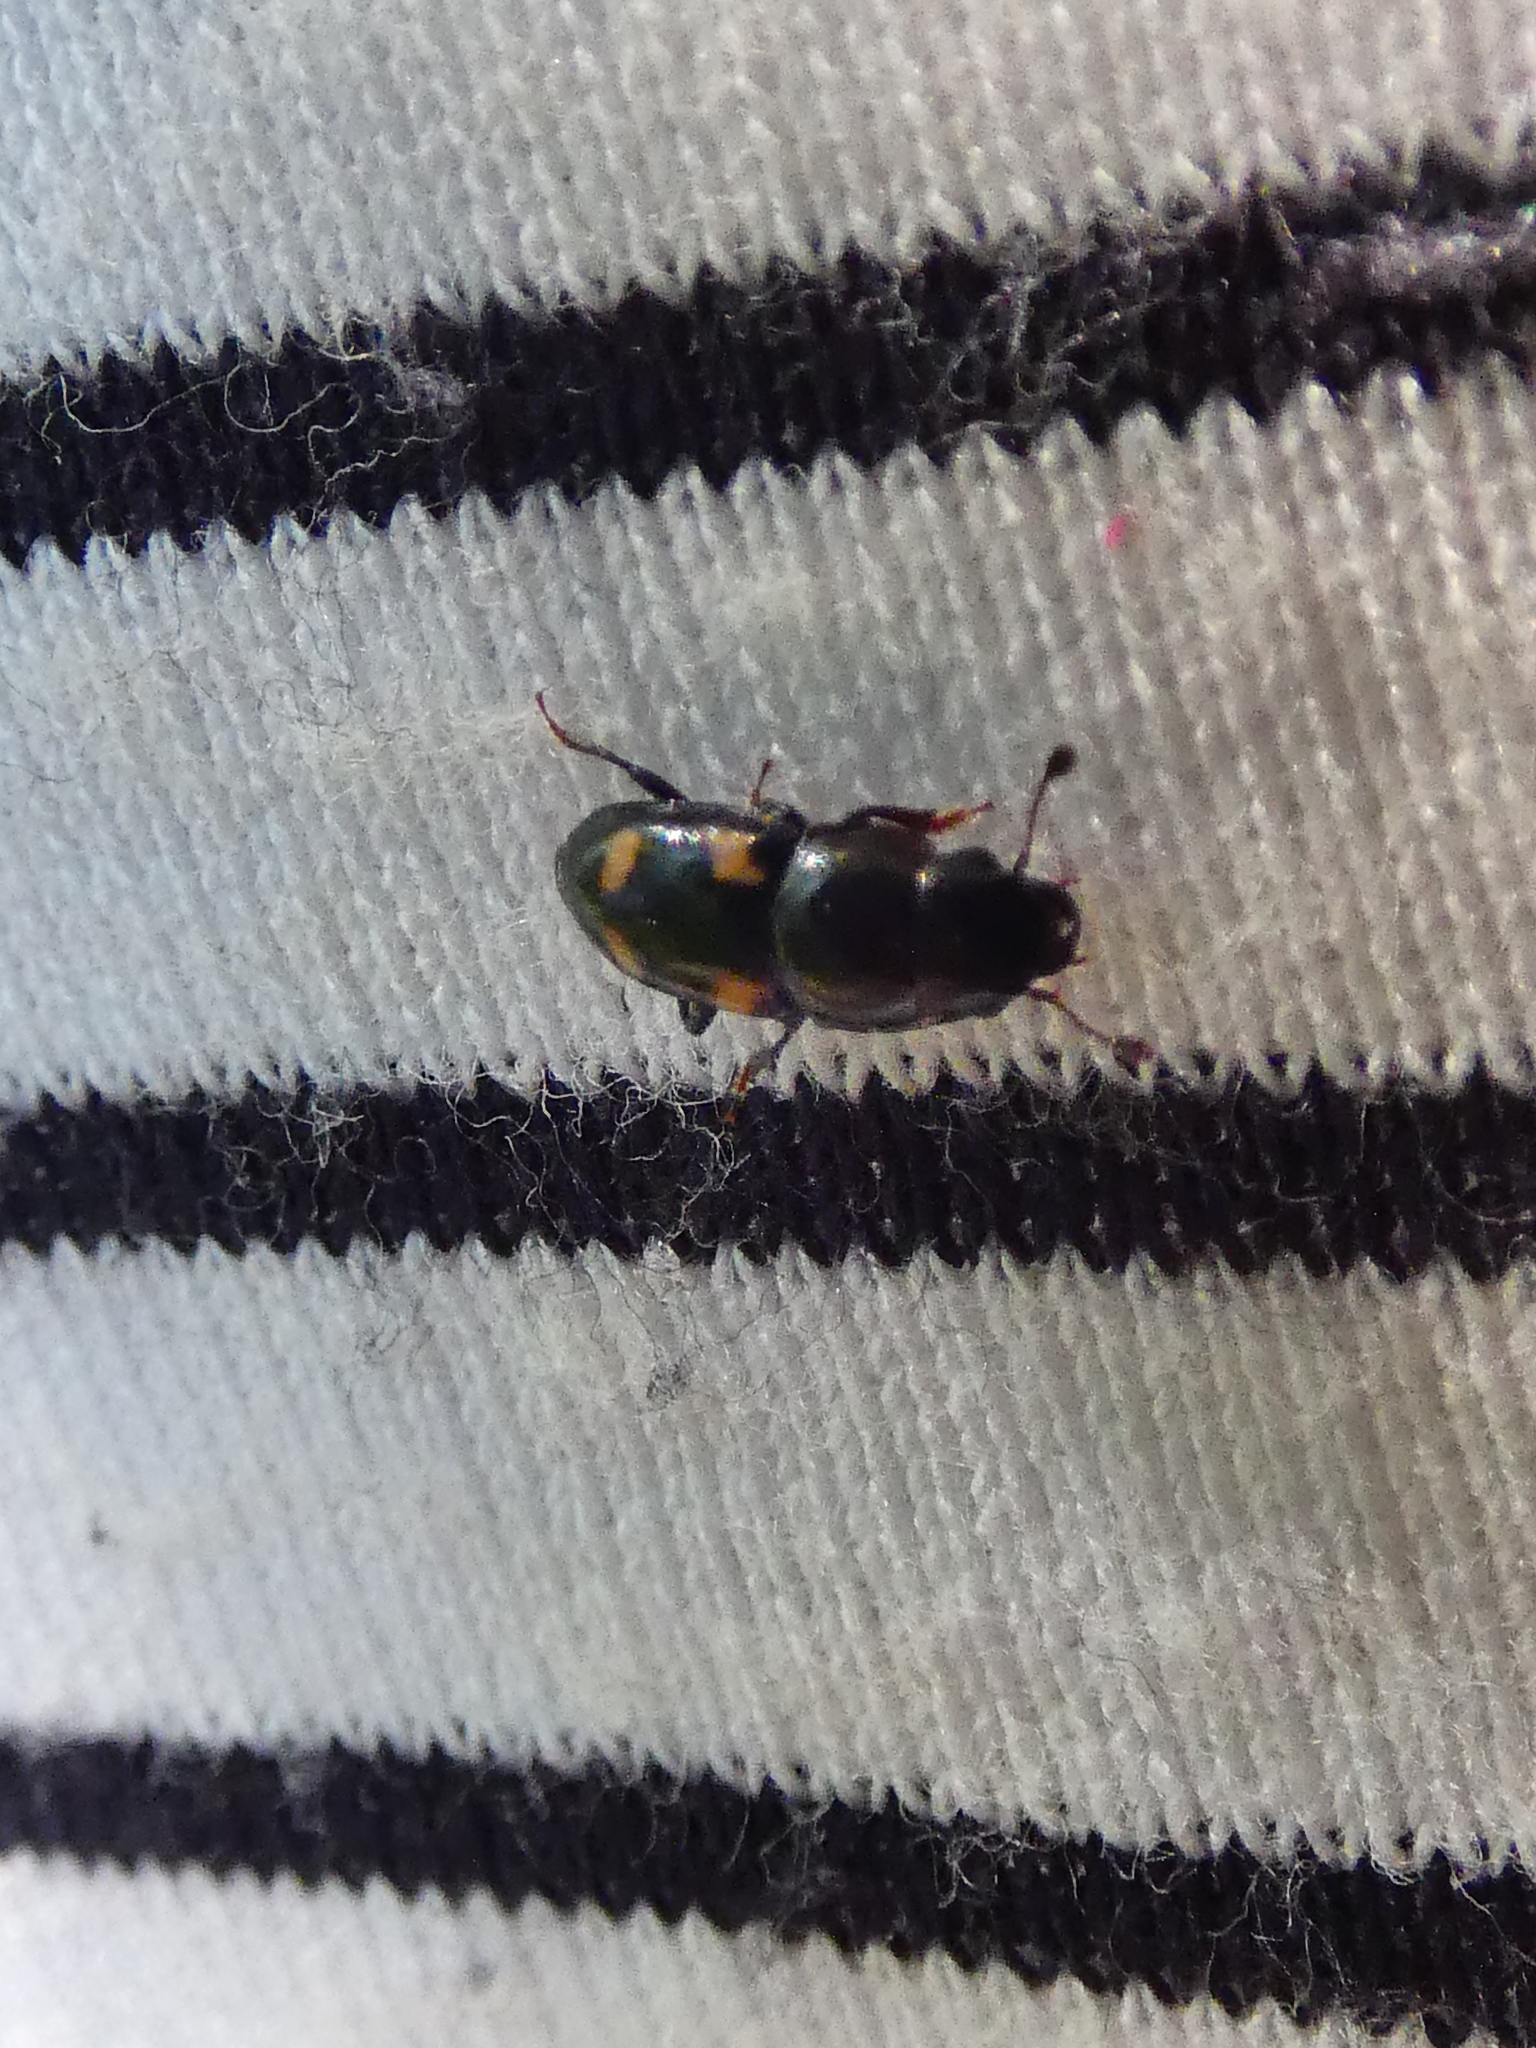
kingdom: Animalia
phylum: Arthropoda
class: Insecta
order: Coleoptera
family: Nitidulidae
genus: Glischrochilus
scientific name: Glischrochilus quadrisignatus
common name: Picnic beetle
